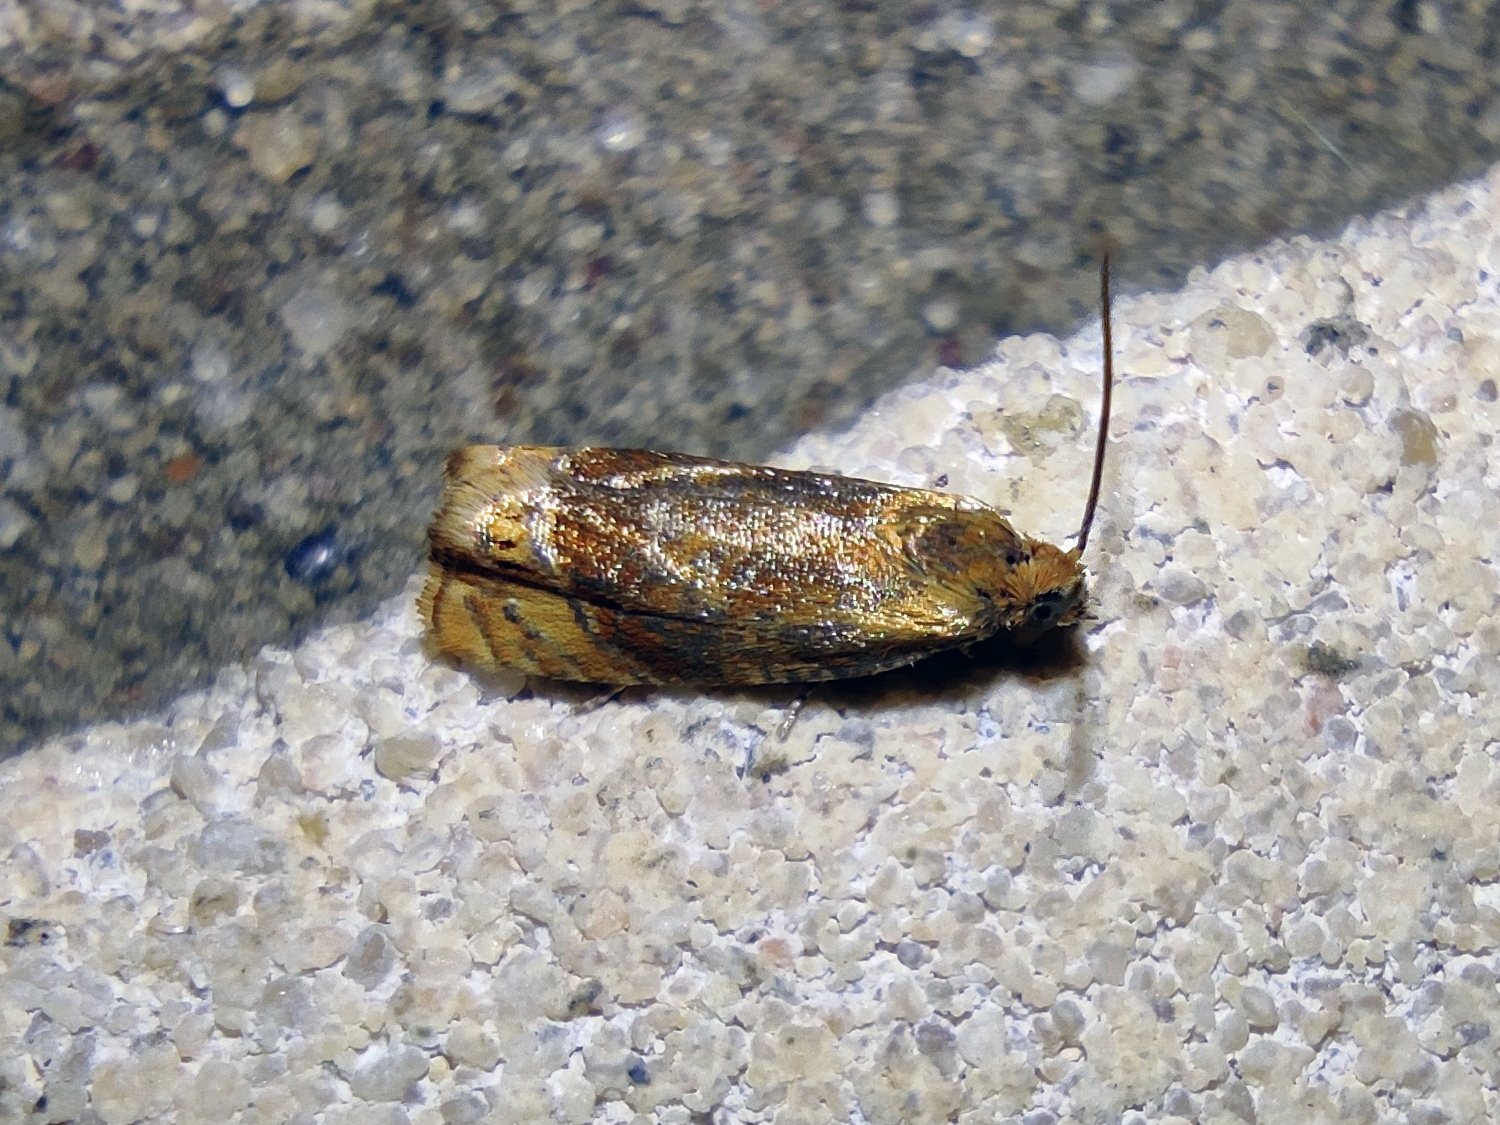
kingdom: Animalia
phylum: Arthropoda
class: Insecta
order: Lepidoptera
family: Tortricidae
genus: Eucosmomorpha
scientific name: Eucosmomorpha albersana
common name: Honeysuckle bell
